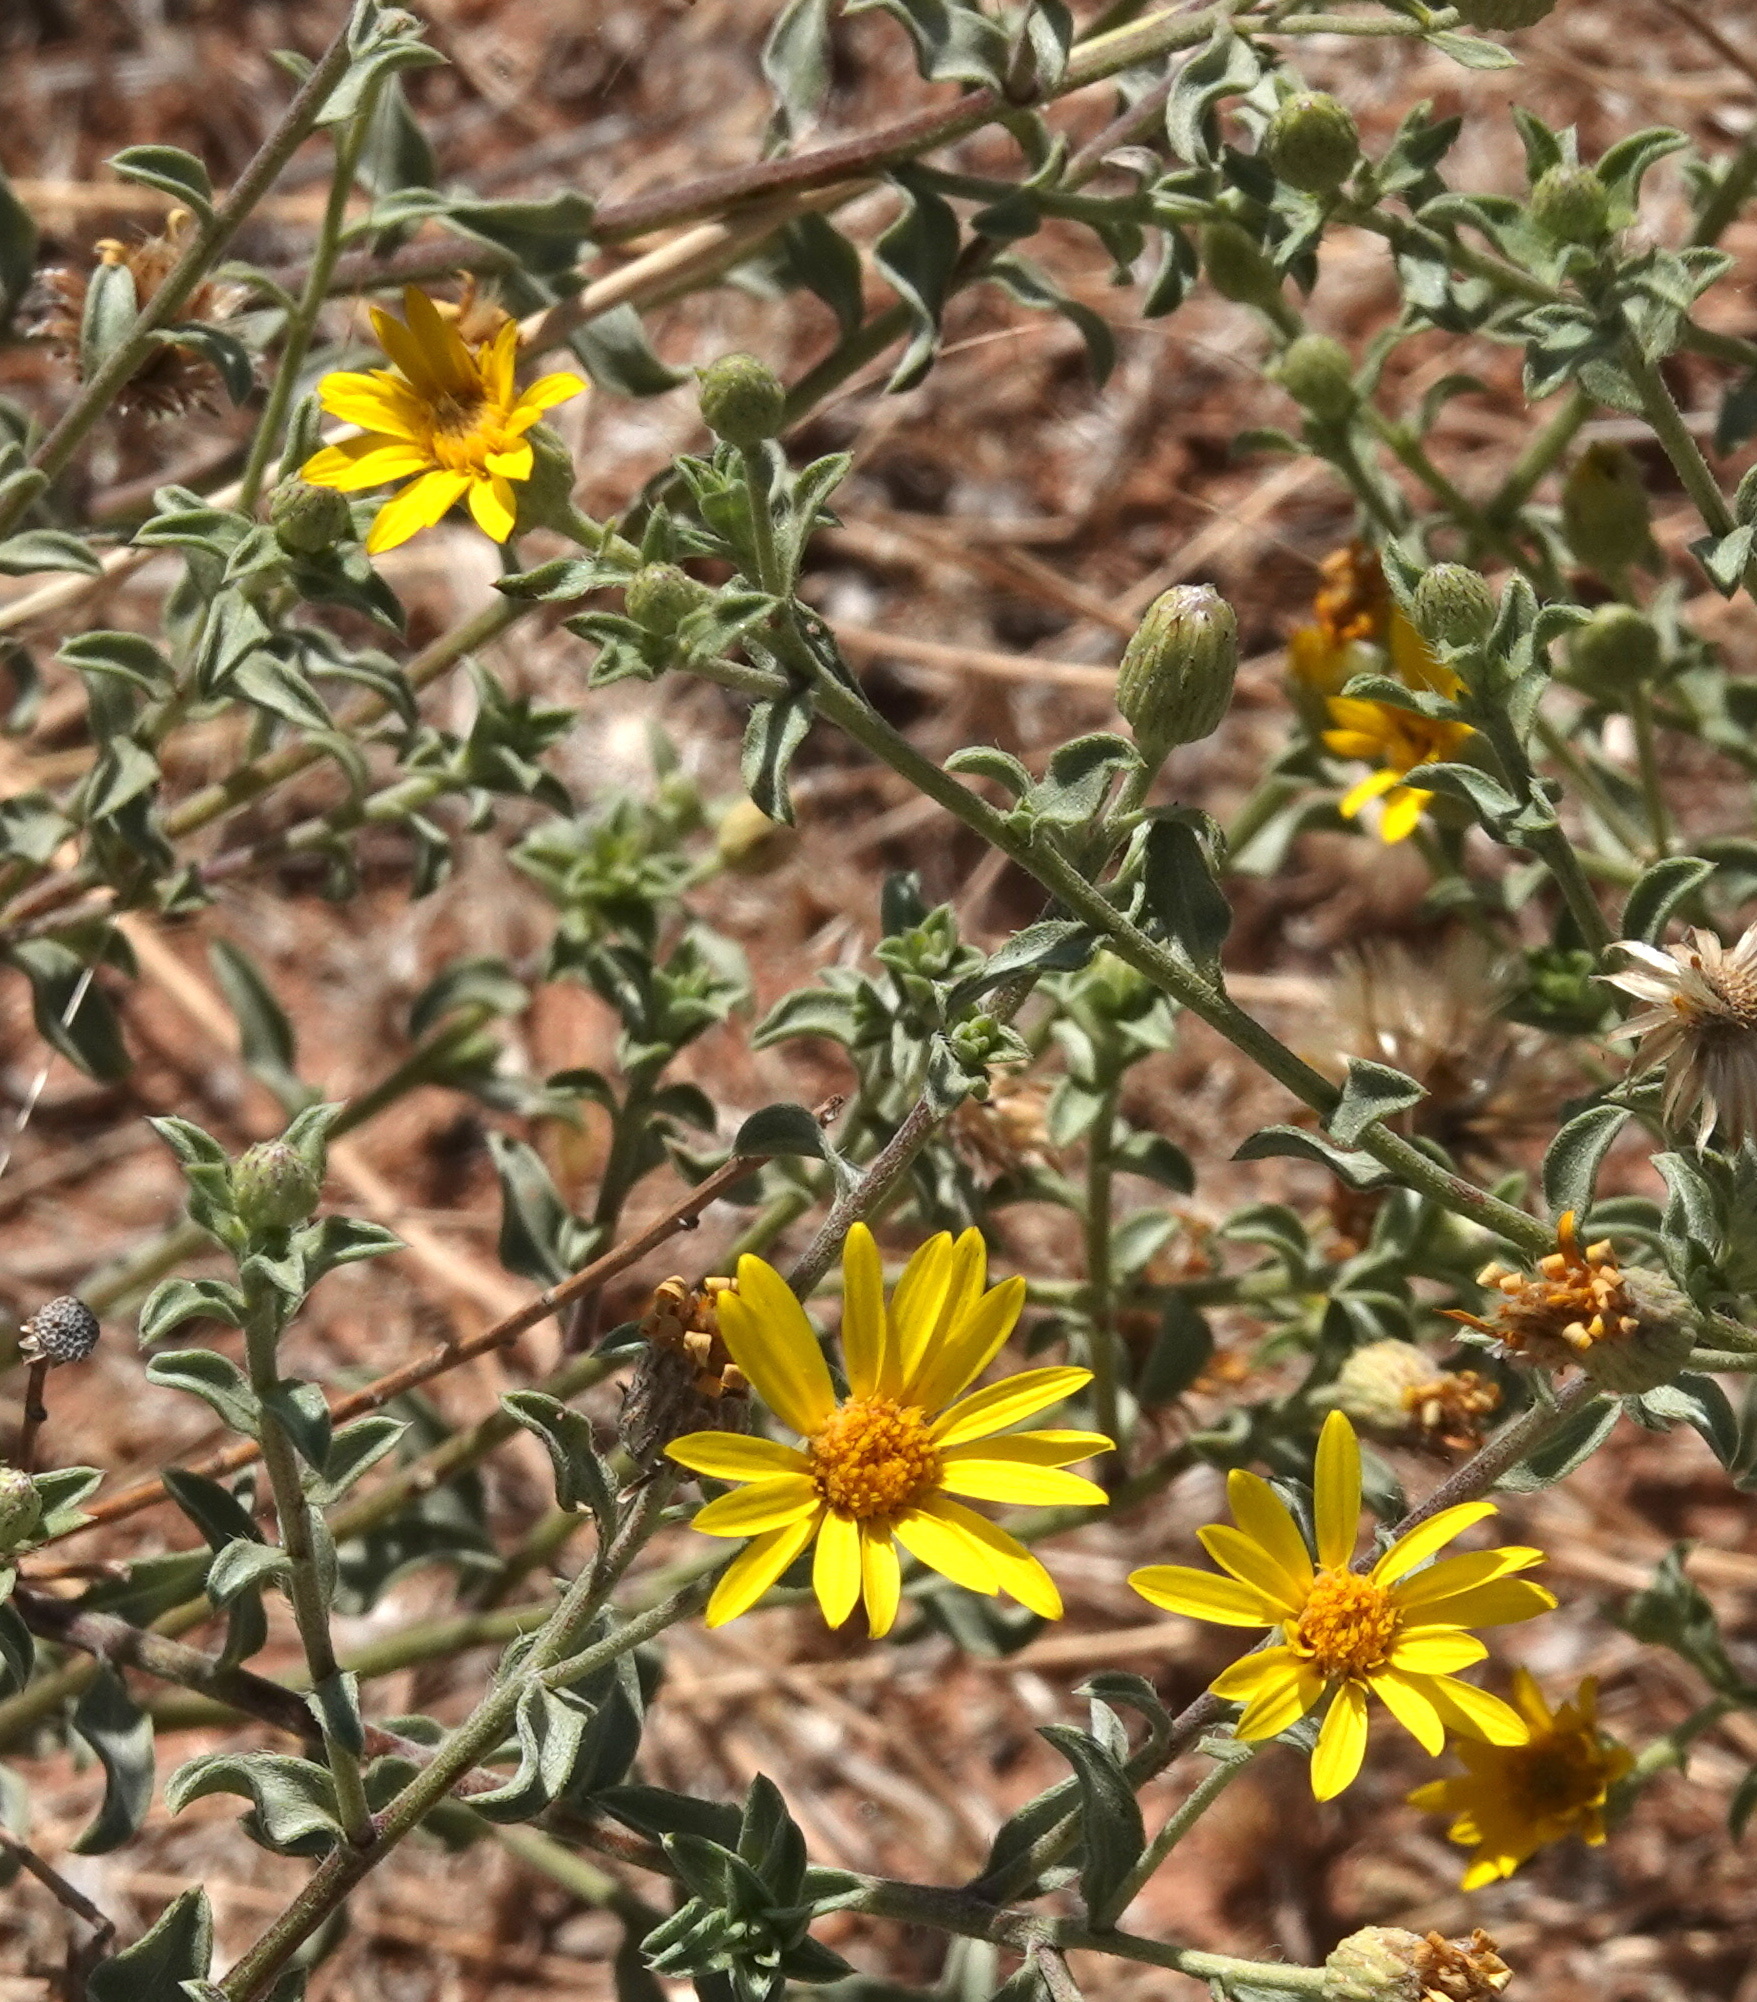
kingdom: Plantae
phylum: Tracheophyta
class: Magnoliopsida
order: Asterales
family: Asteraceae
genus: Heterotheca
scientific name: Heterotheca polothrix
